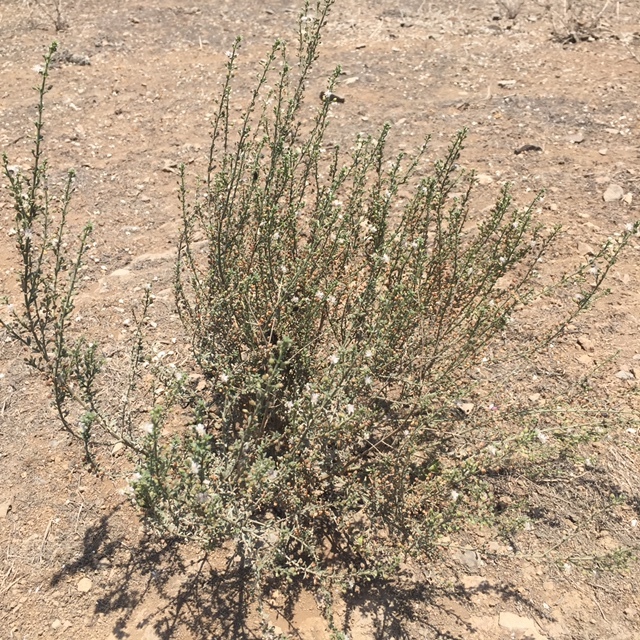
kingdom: Plantae
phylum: Tracheophyta
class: Magnoliopsida
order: Lamiales
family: Plantaginaceae
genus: Scoparia
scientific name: Scoparia dulcis
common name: Scoparia-weed
